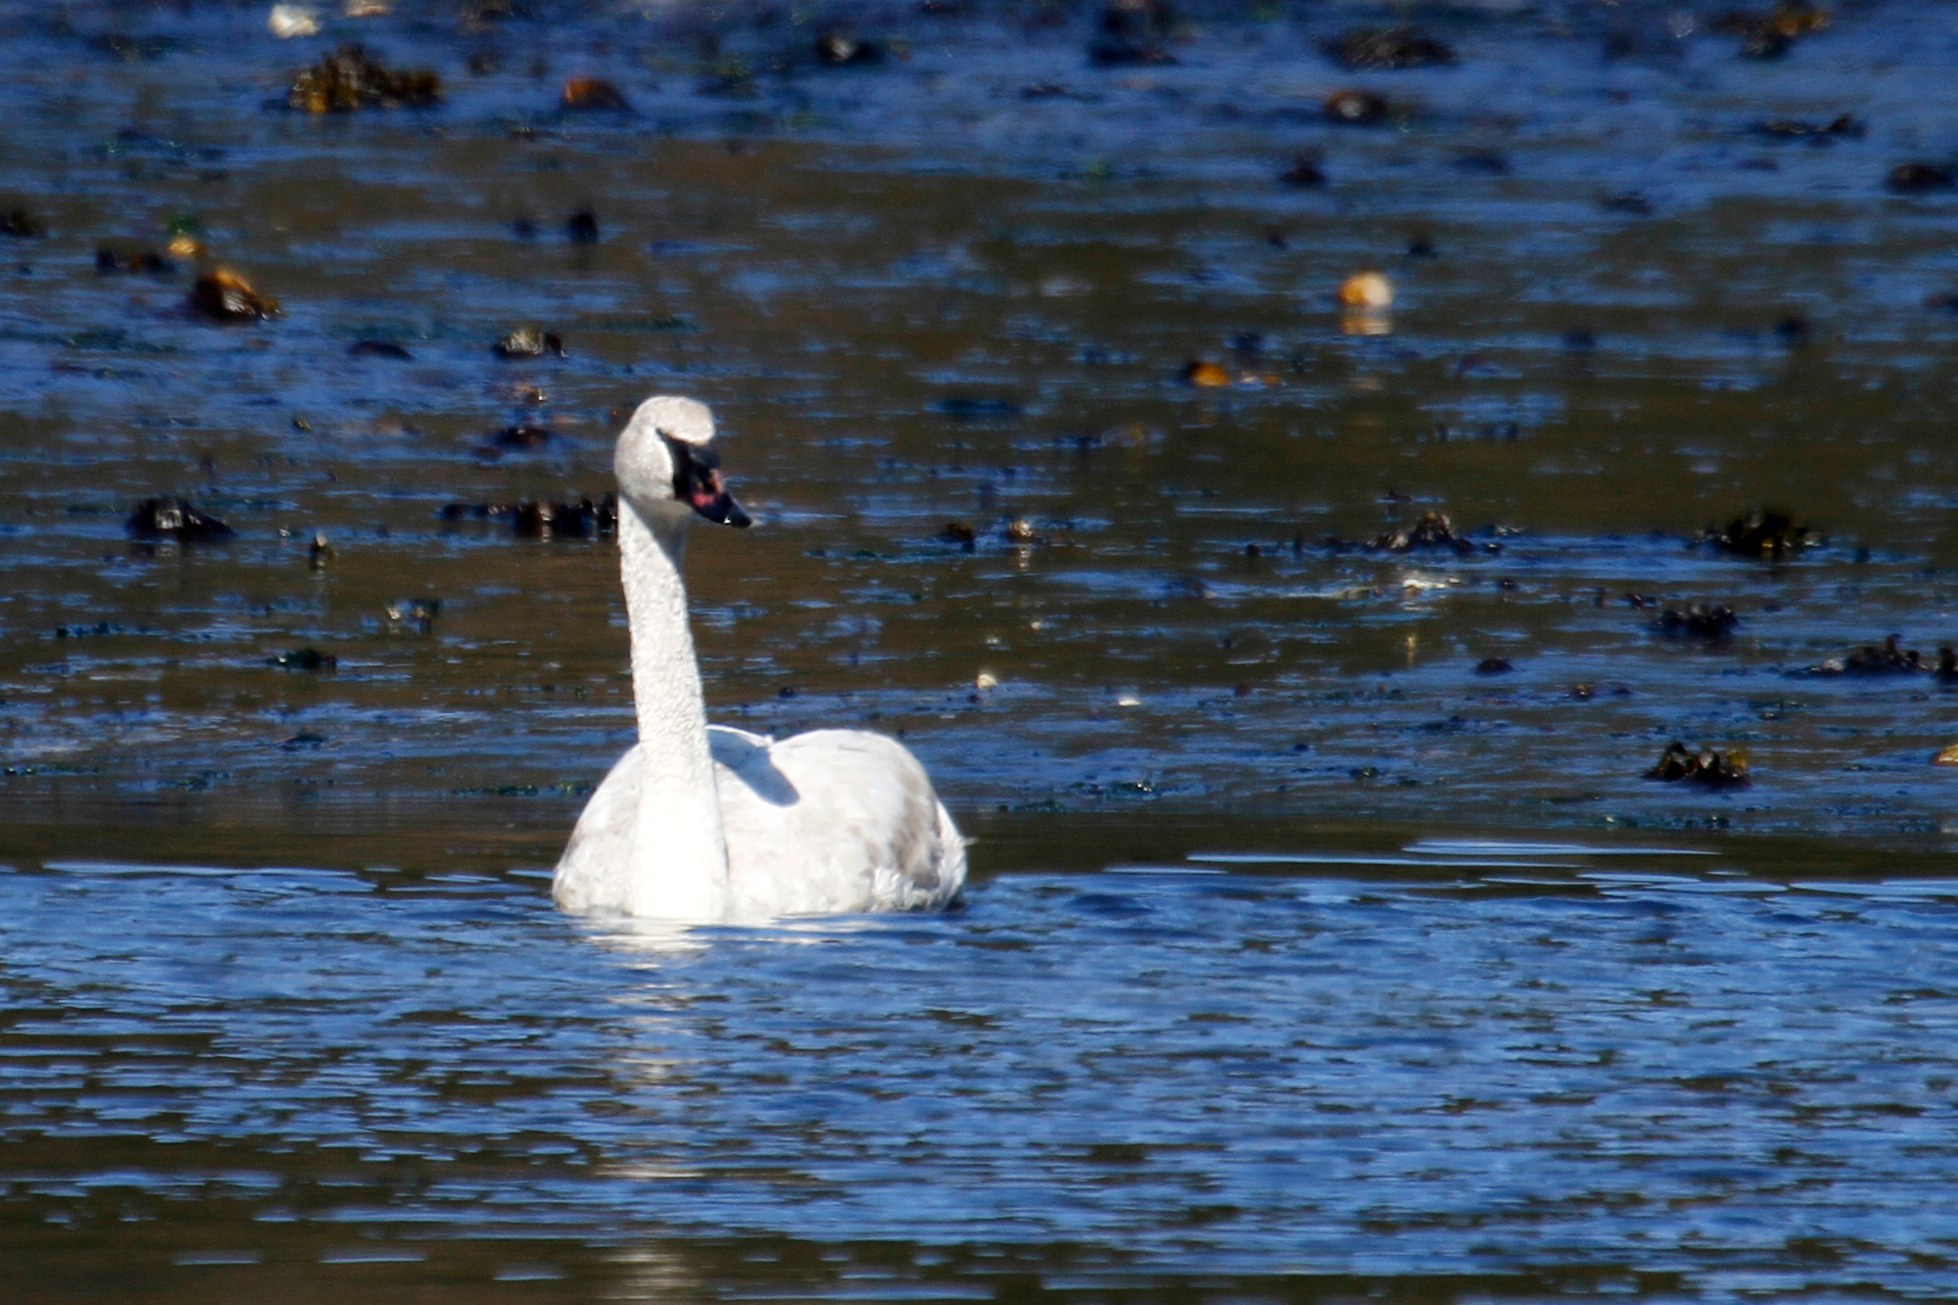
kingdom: Animalia
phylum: Chordata
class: Aves
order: Anseriformes
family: Anatidae
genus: Cygnus
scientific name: Cygnus buccinator
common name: Trumpeter swan
